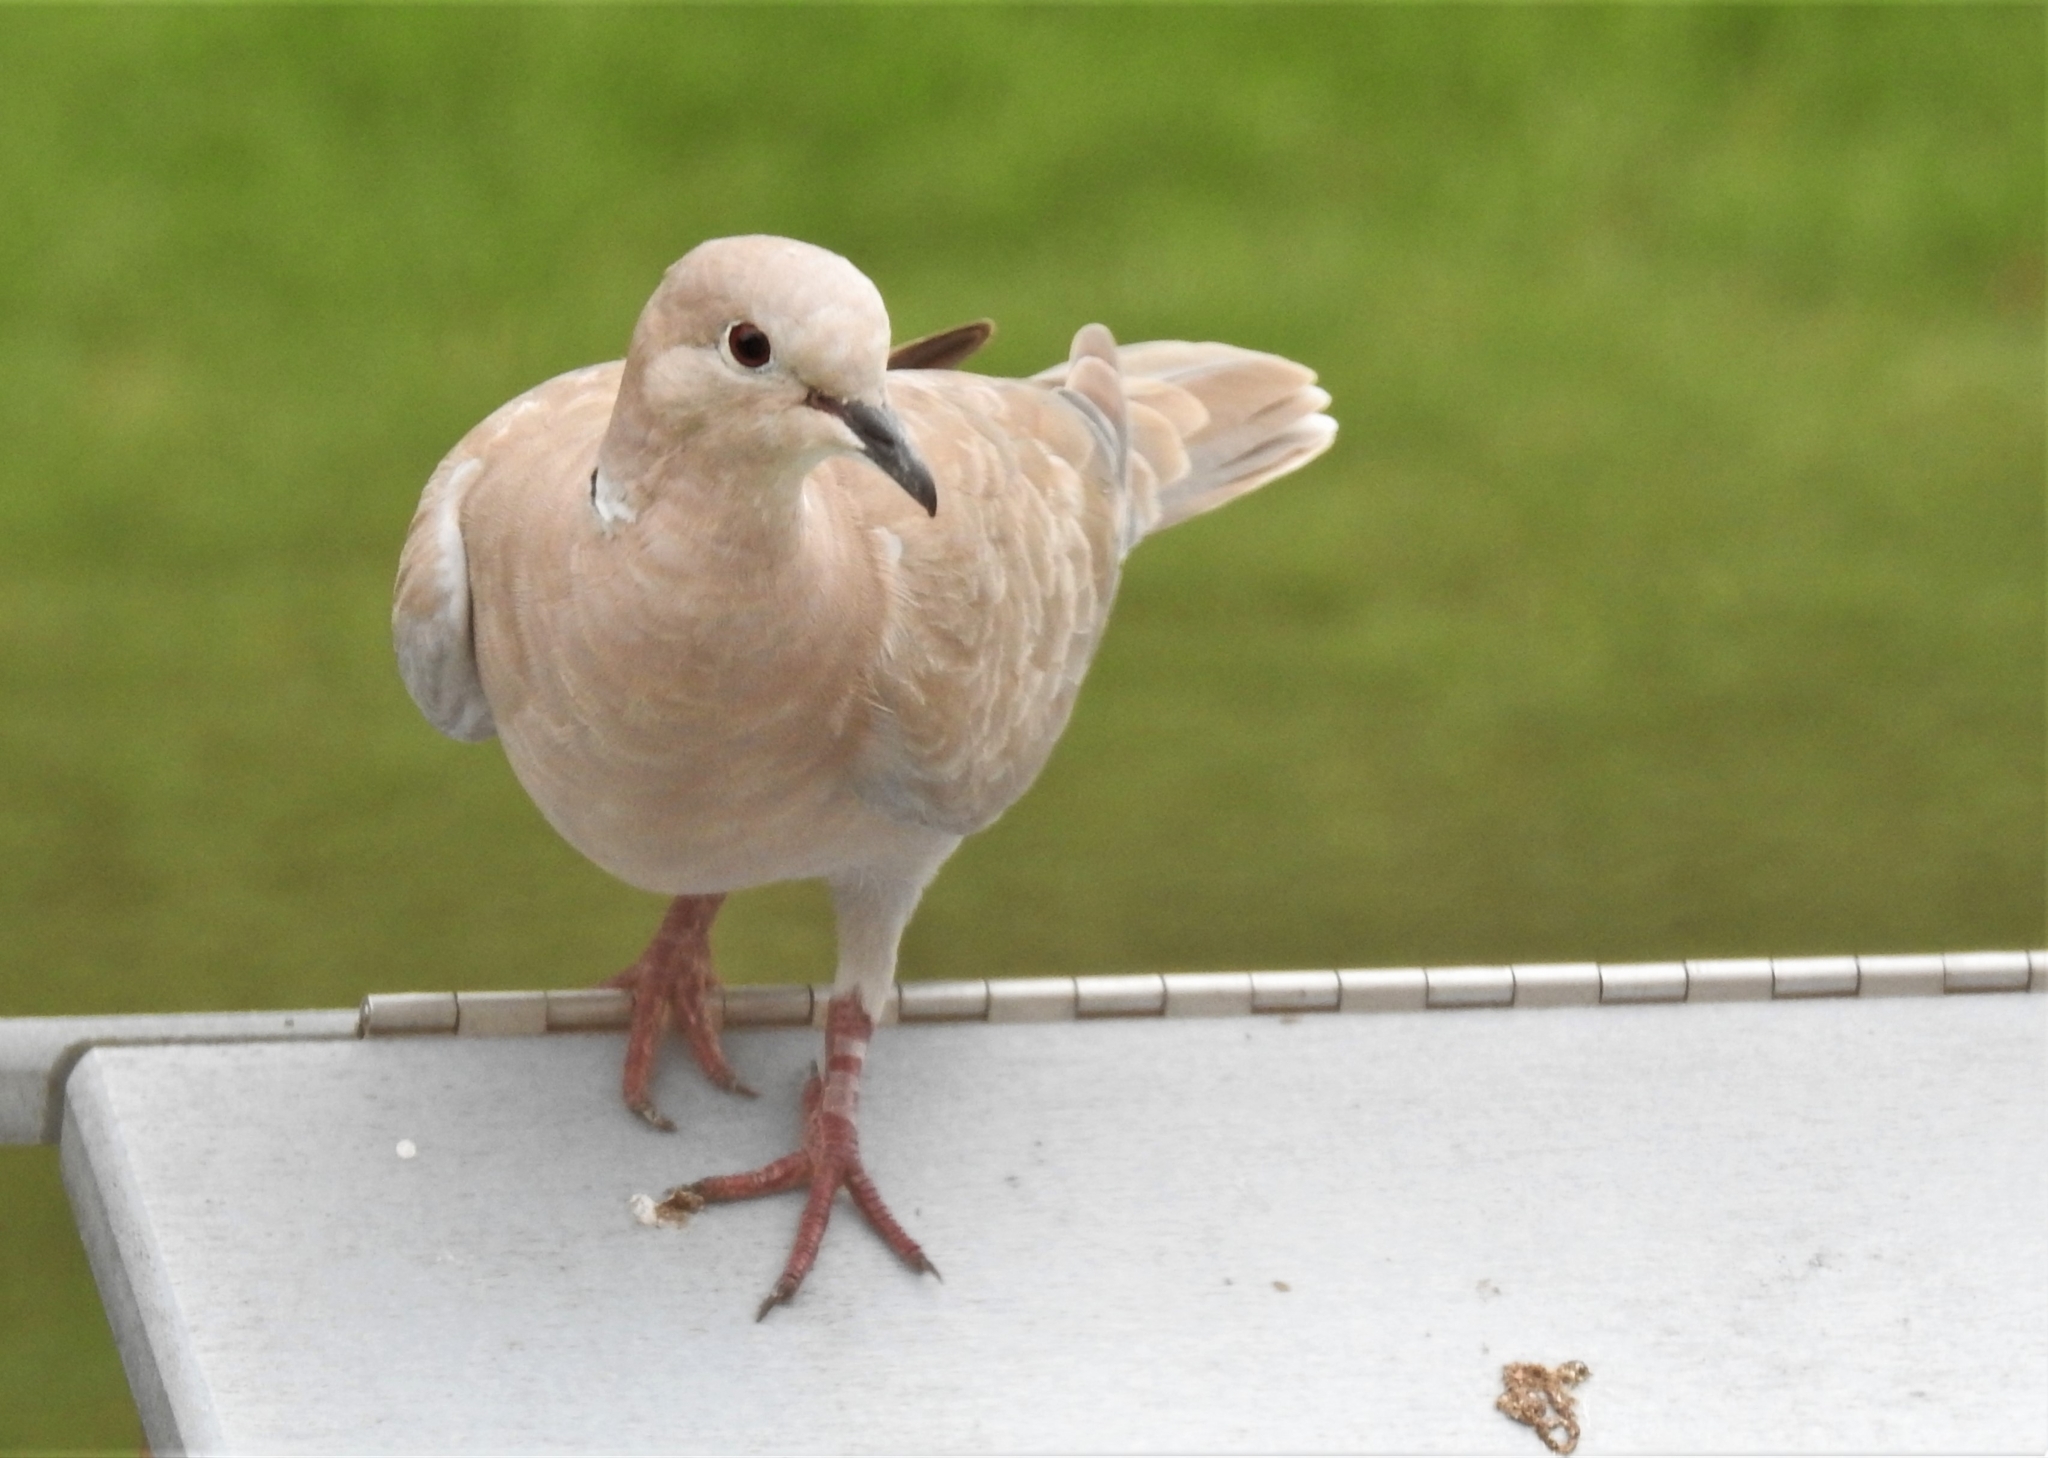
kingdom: Animalia
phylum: Chordata
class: Aves
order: Columbiformes
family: Columbidae
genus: Streptopelia
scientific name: Streptopelia decaocto
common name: Eurasian collared dove
